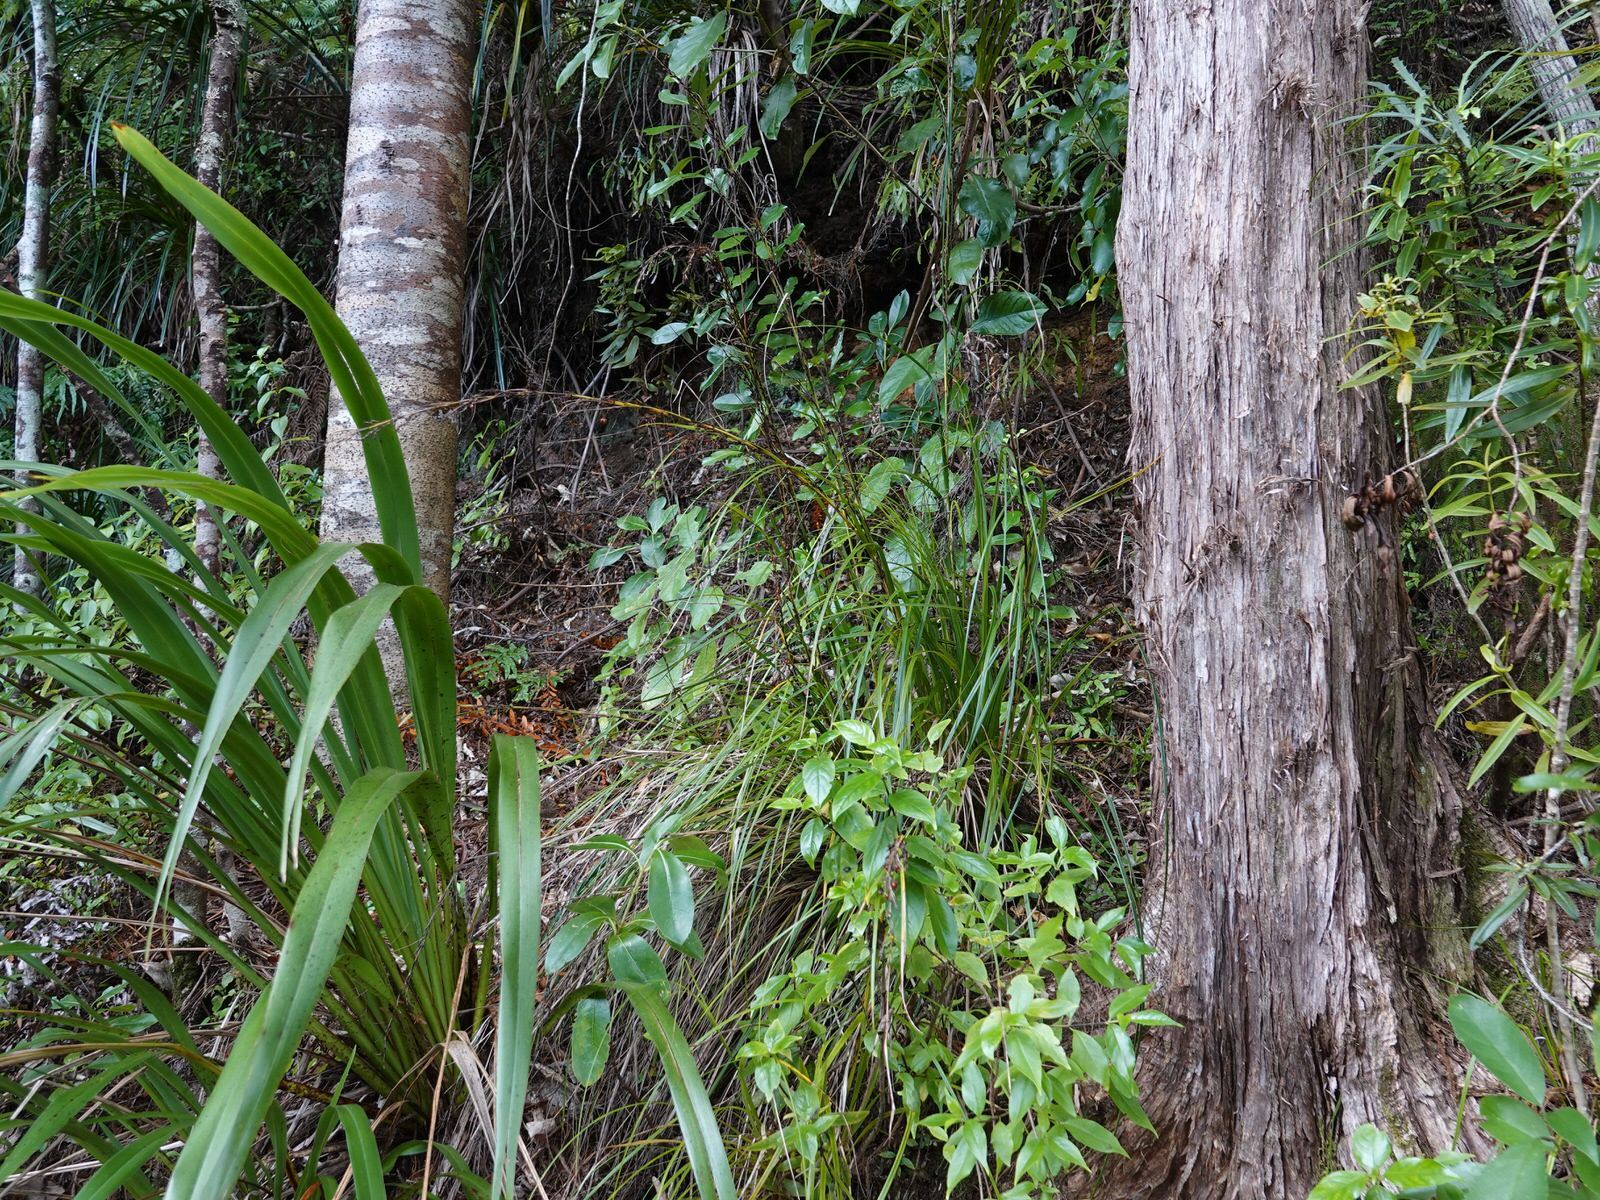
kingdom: Plantae
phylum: Tracheophyta
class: Liliopsida
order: Poales
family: Cyperaceae
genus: Gahnia
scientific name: Gahnia pauciflora
